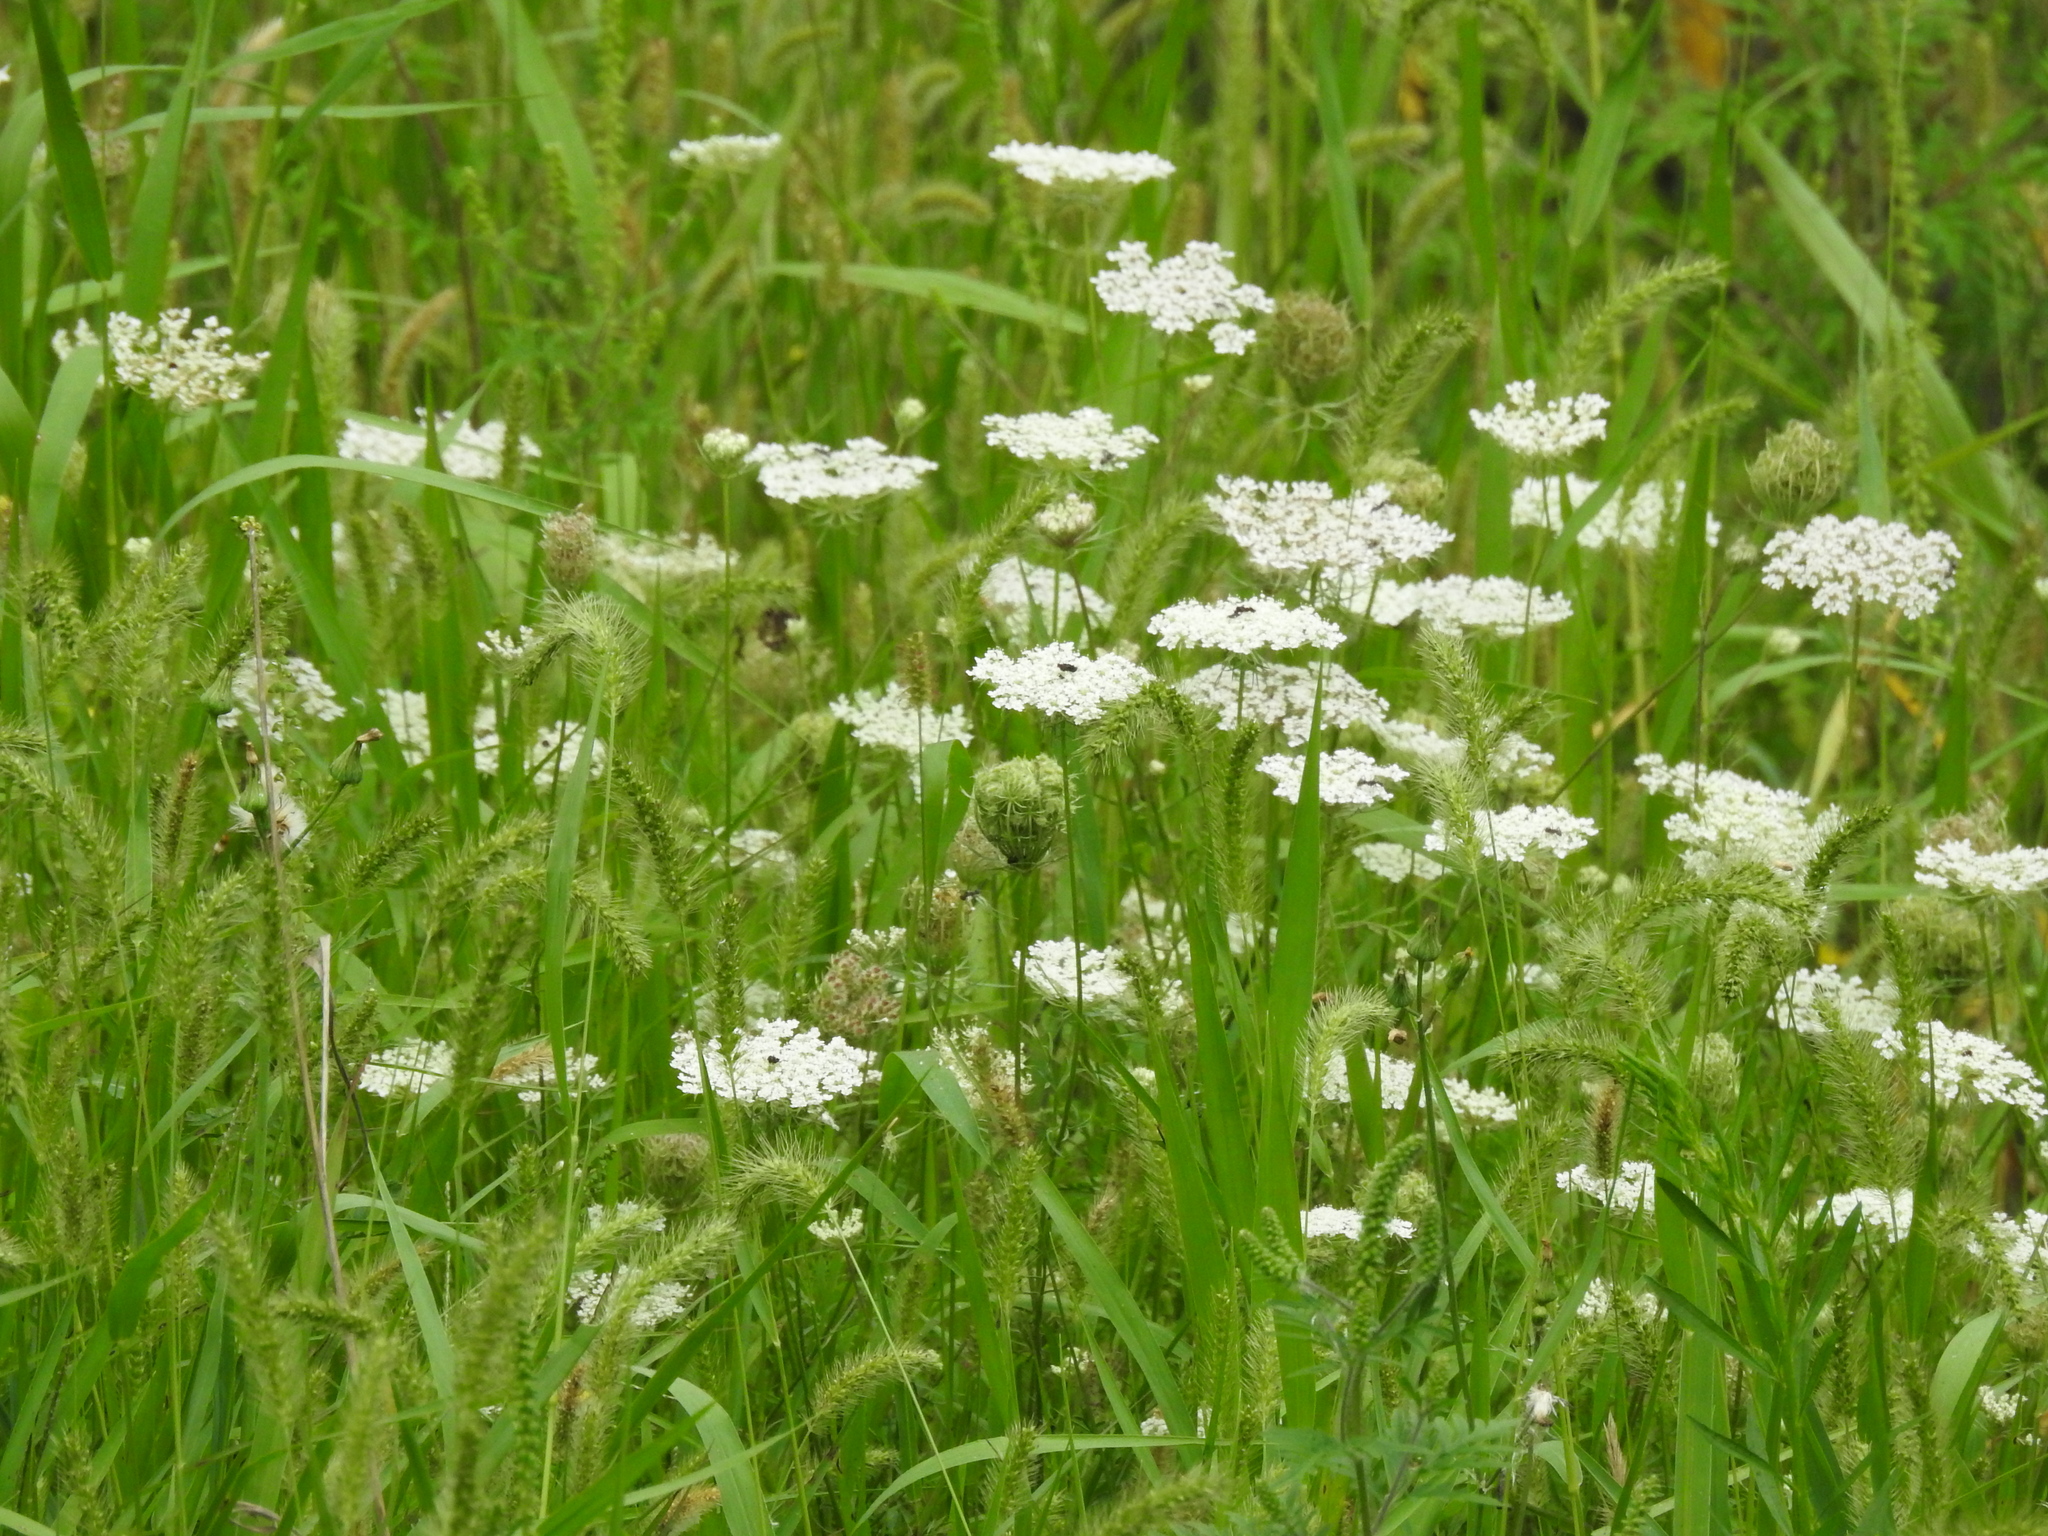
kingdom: Plantae
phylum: Tracheophyta
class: Magnoliopsida
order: Apiales
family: Apiaceae
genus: Daucus
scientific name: Daucus carota
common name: Wild carrot
